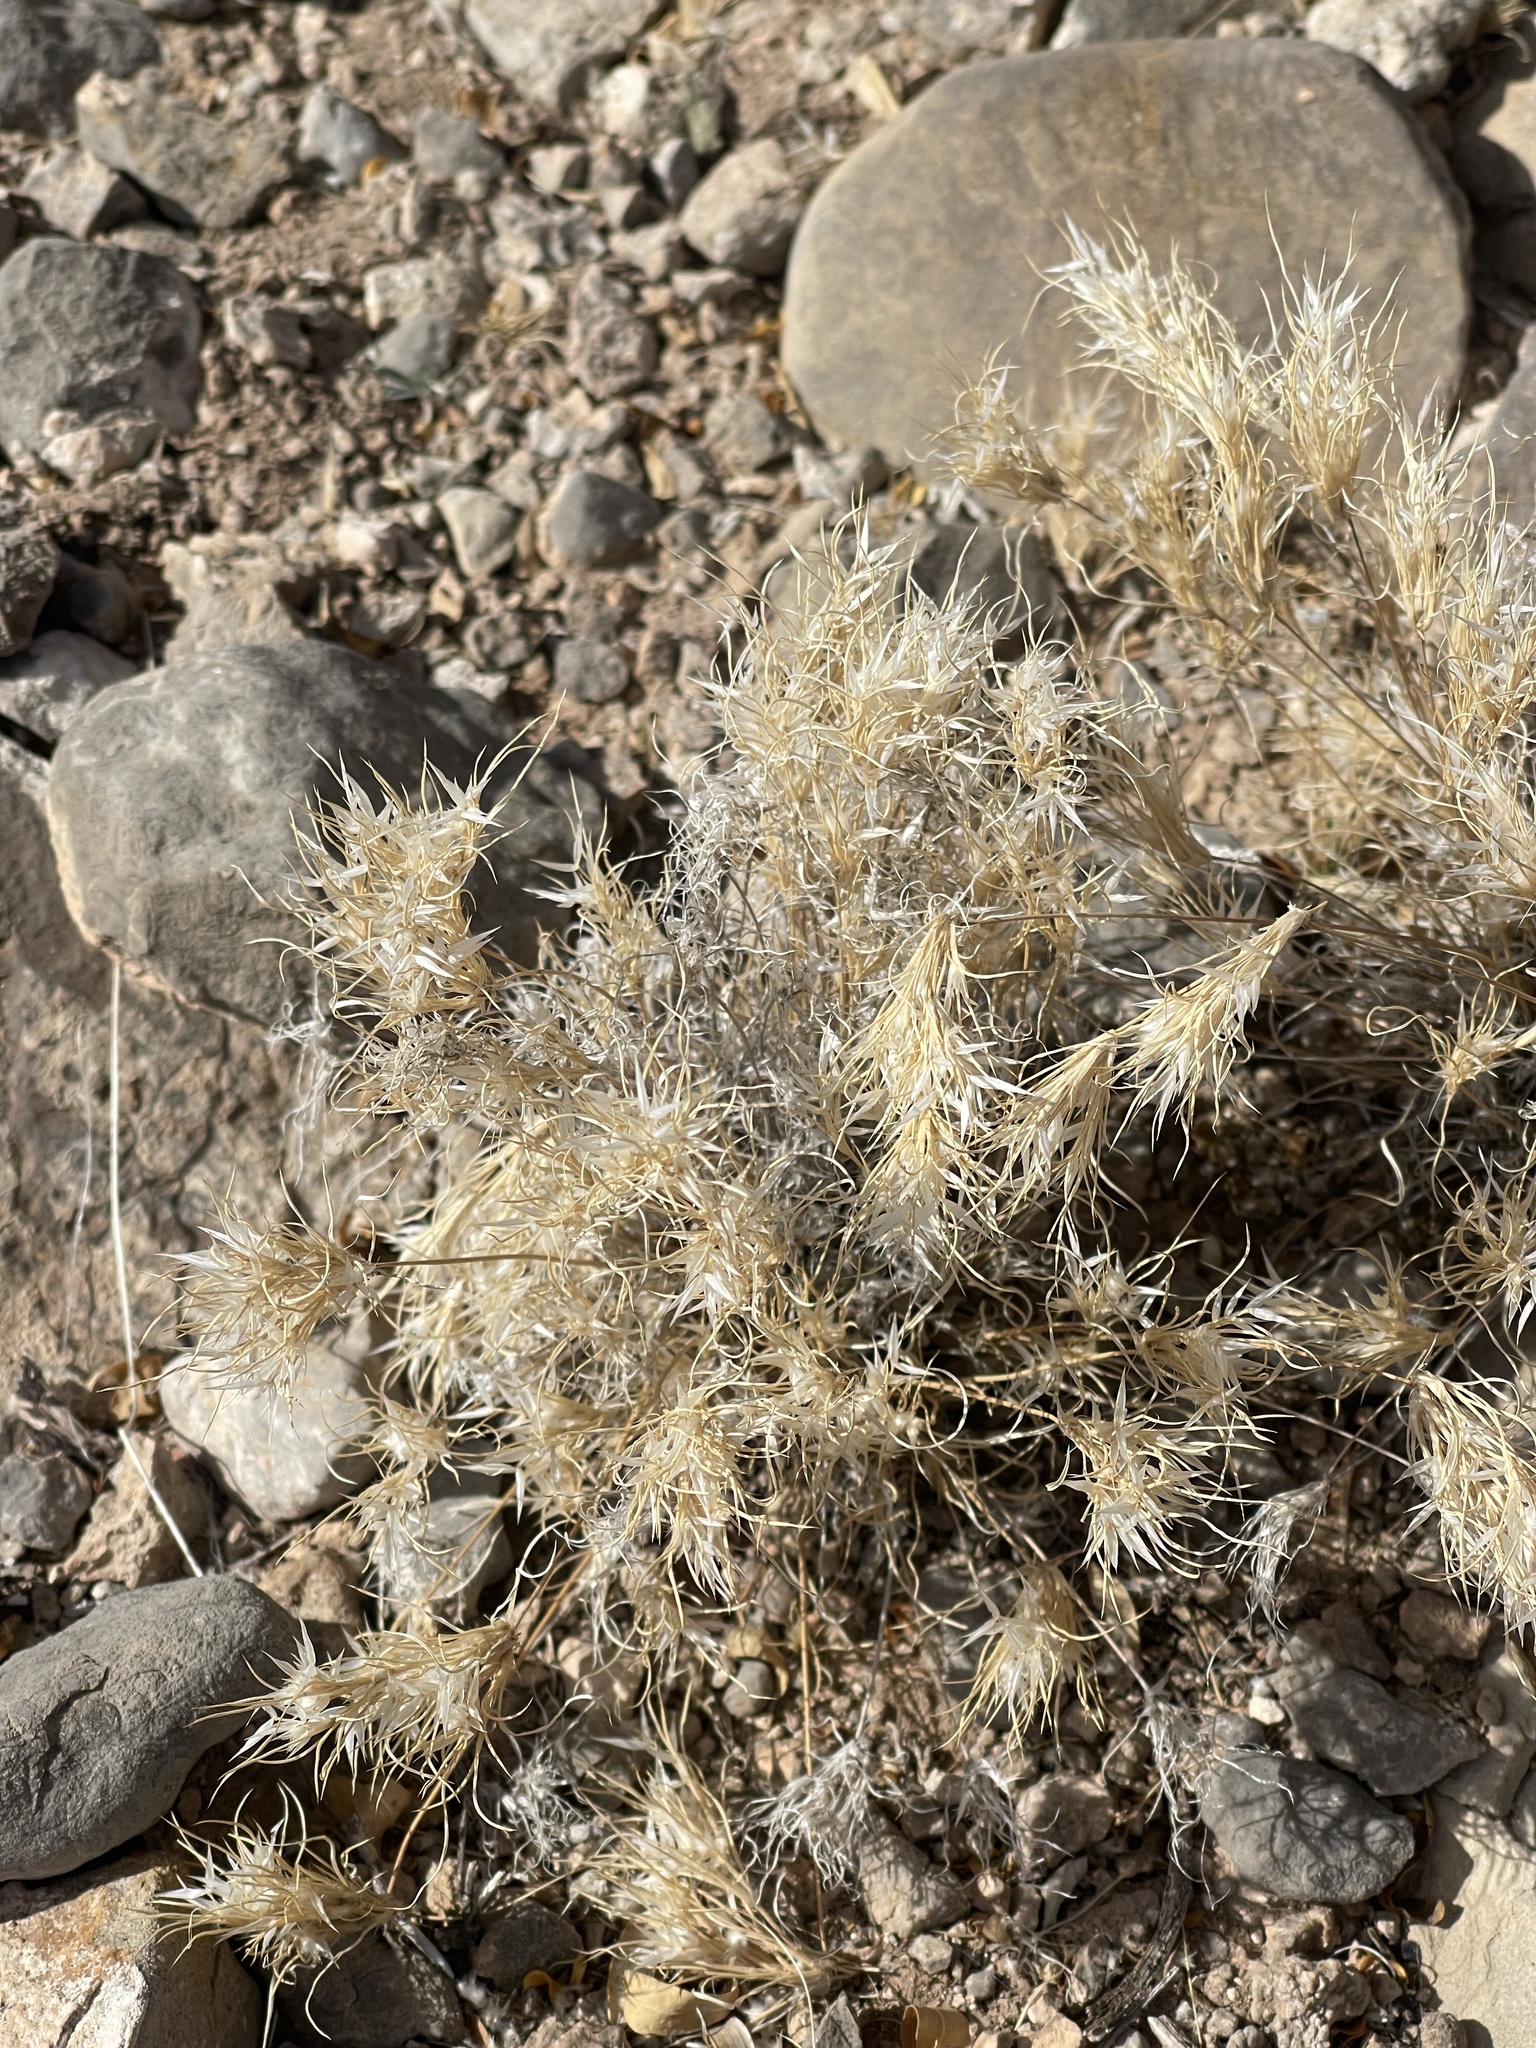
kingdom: Plantae
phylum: Tracheophyta
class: Liliopsida
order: Poales
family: Poaceae
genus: Dasyochloa
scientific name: Dasyochloa pulchella
